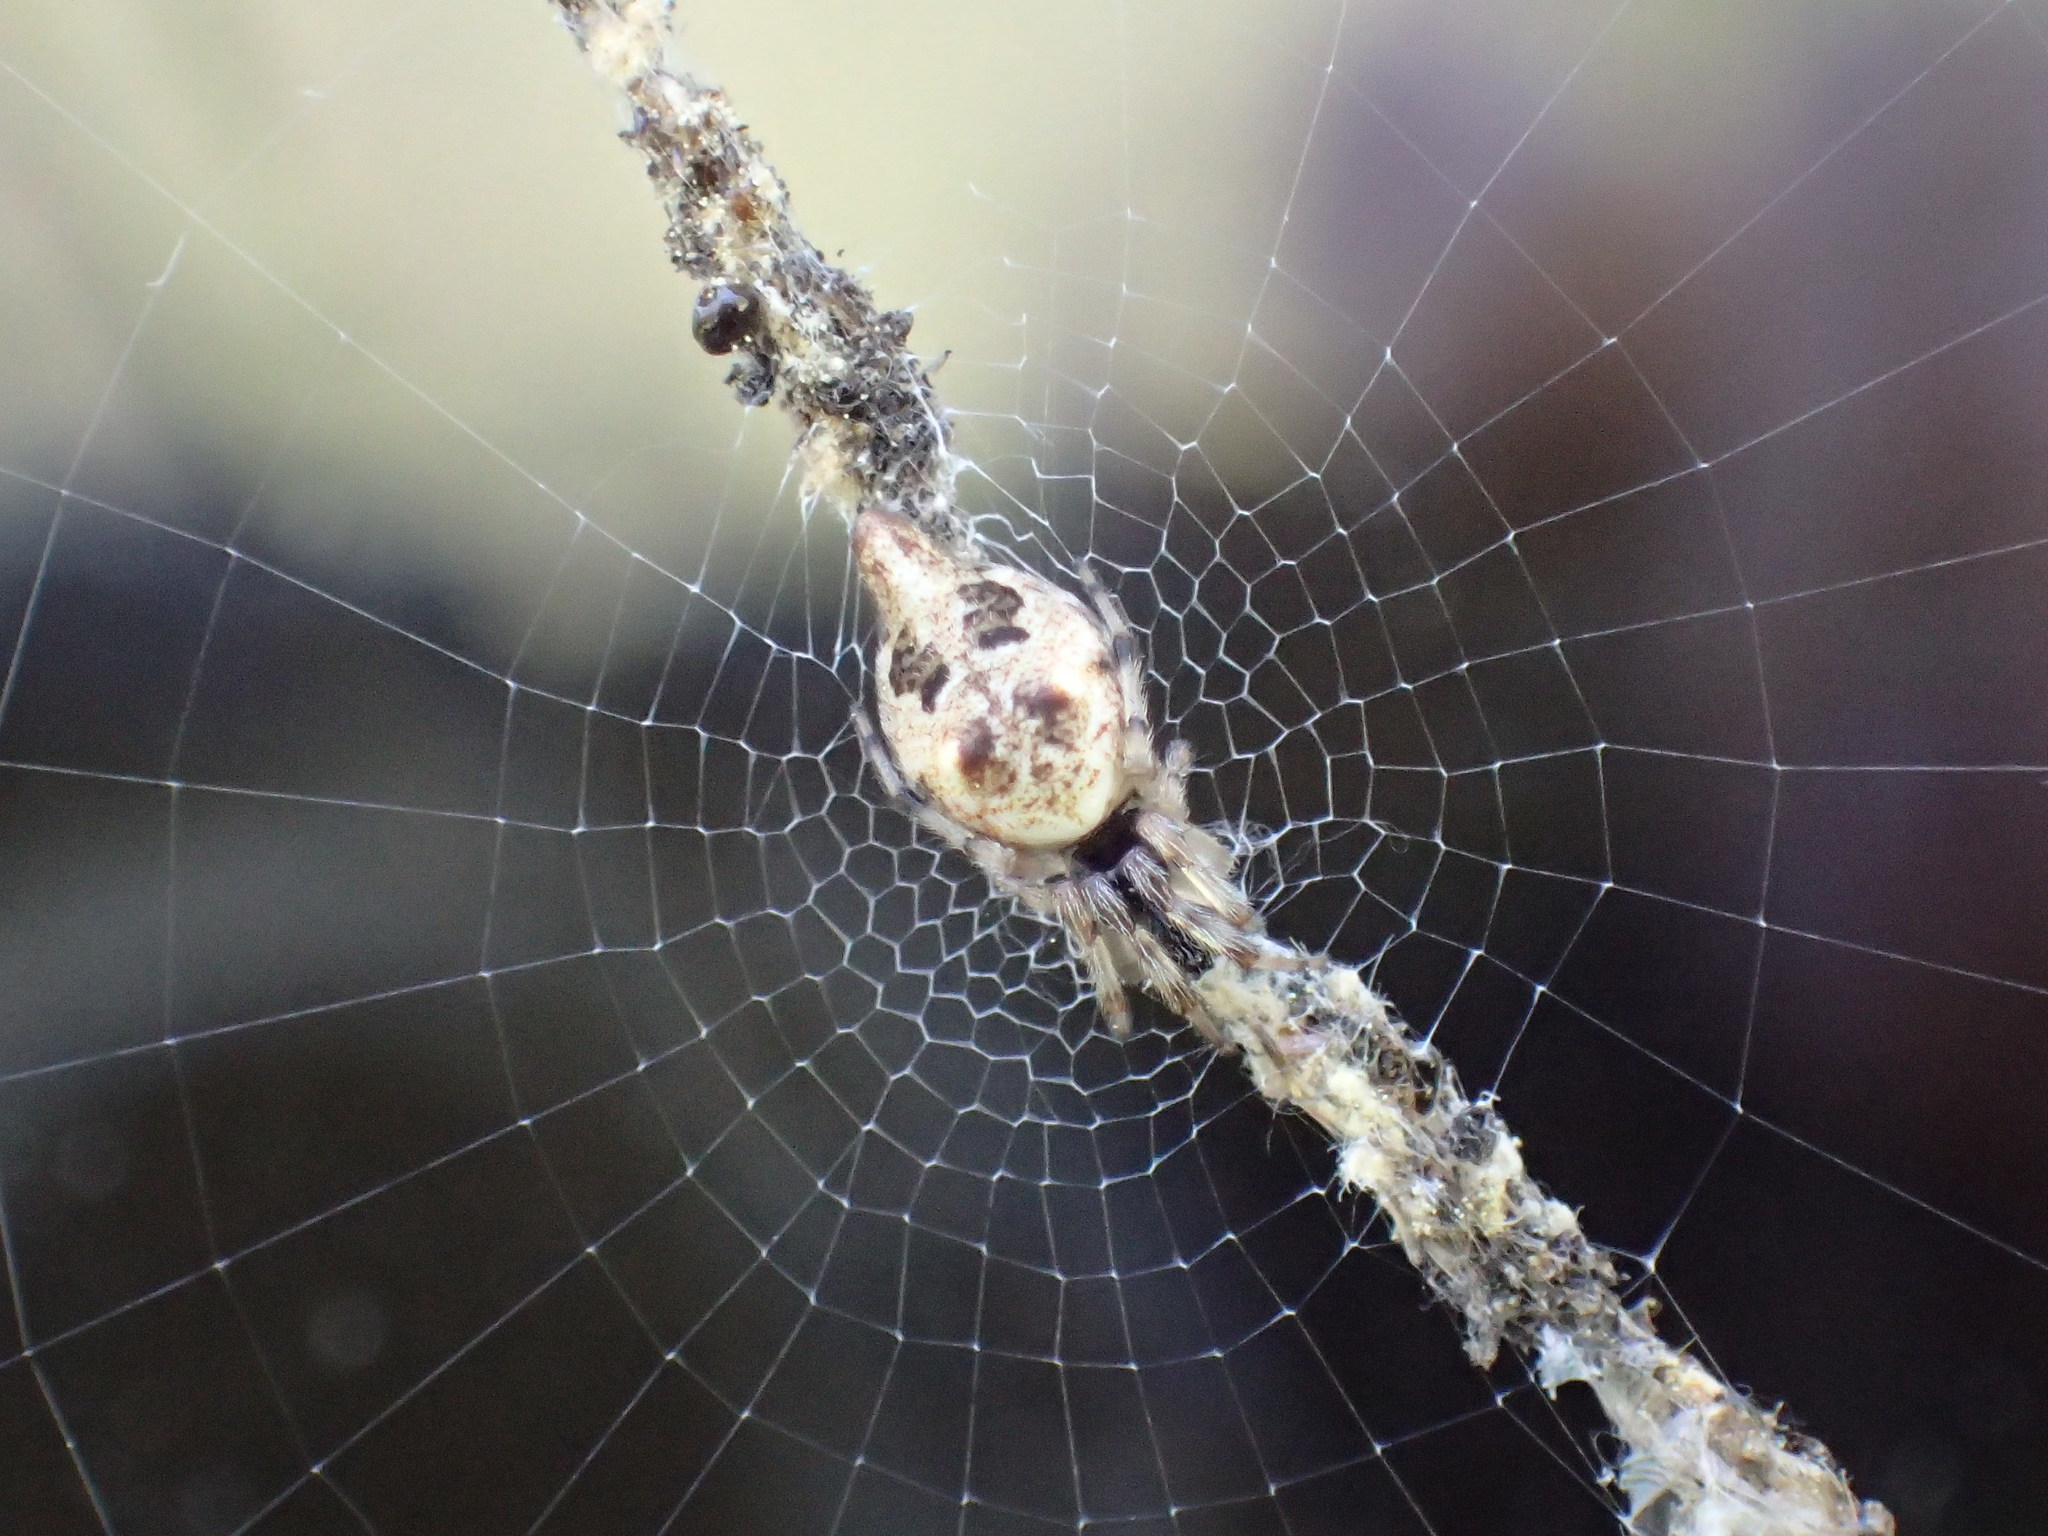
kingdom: Animalia
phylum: Arthropoda
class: Arachnida
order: Araneae
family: Araneidae
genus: Cyclosa
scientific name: Cyclosa turbinata
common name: Orb weavers
